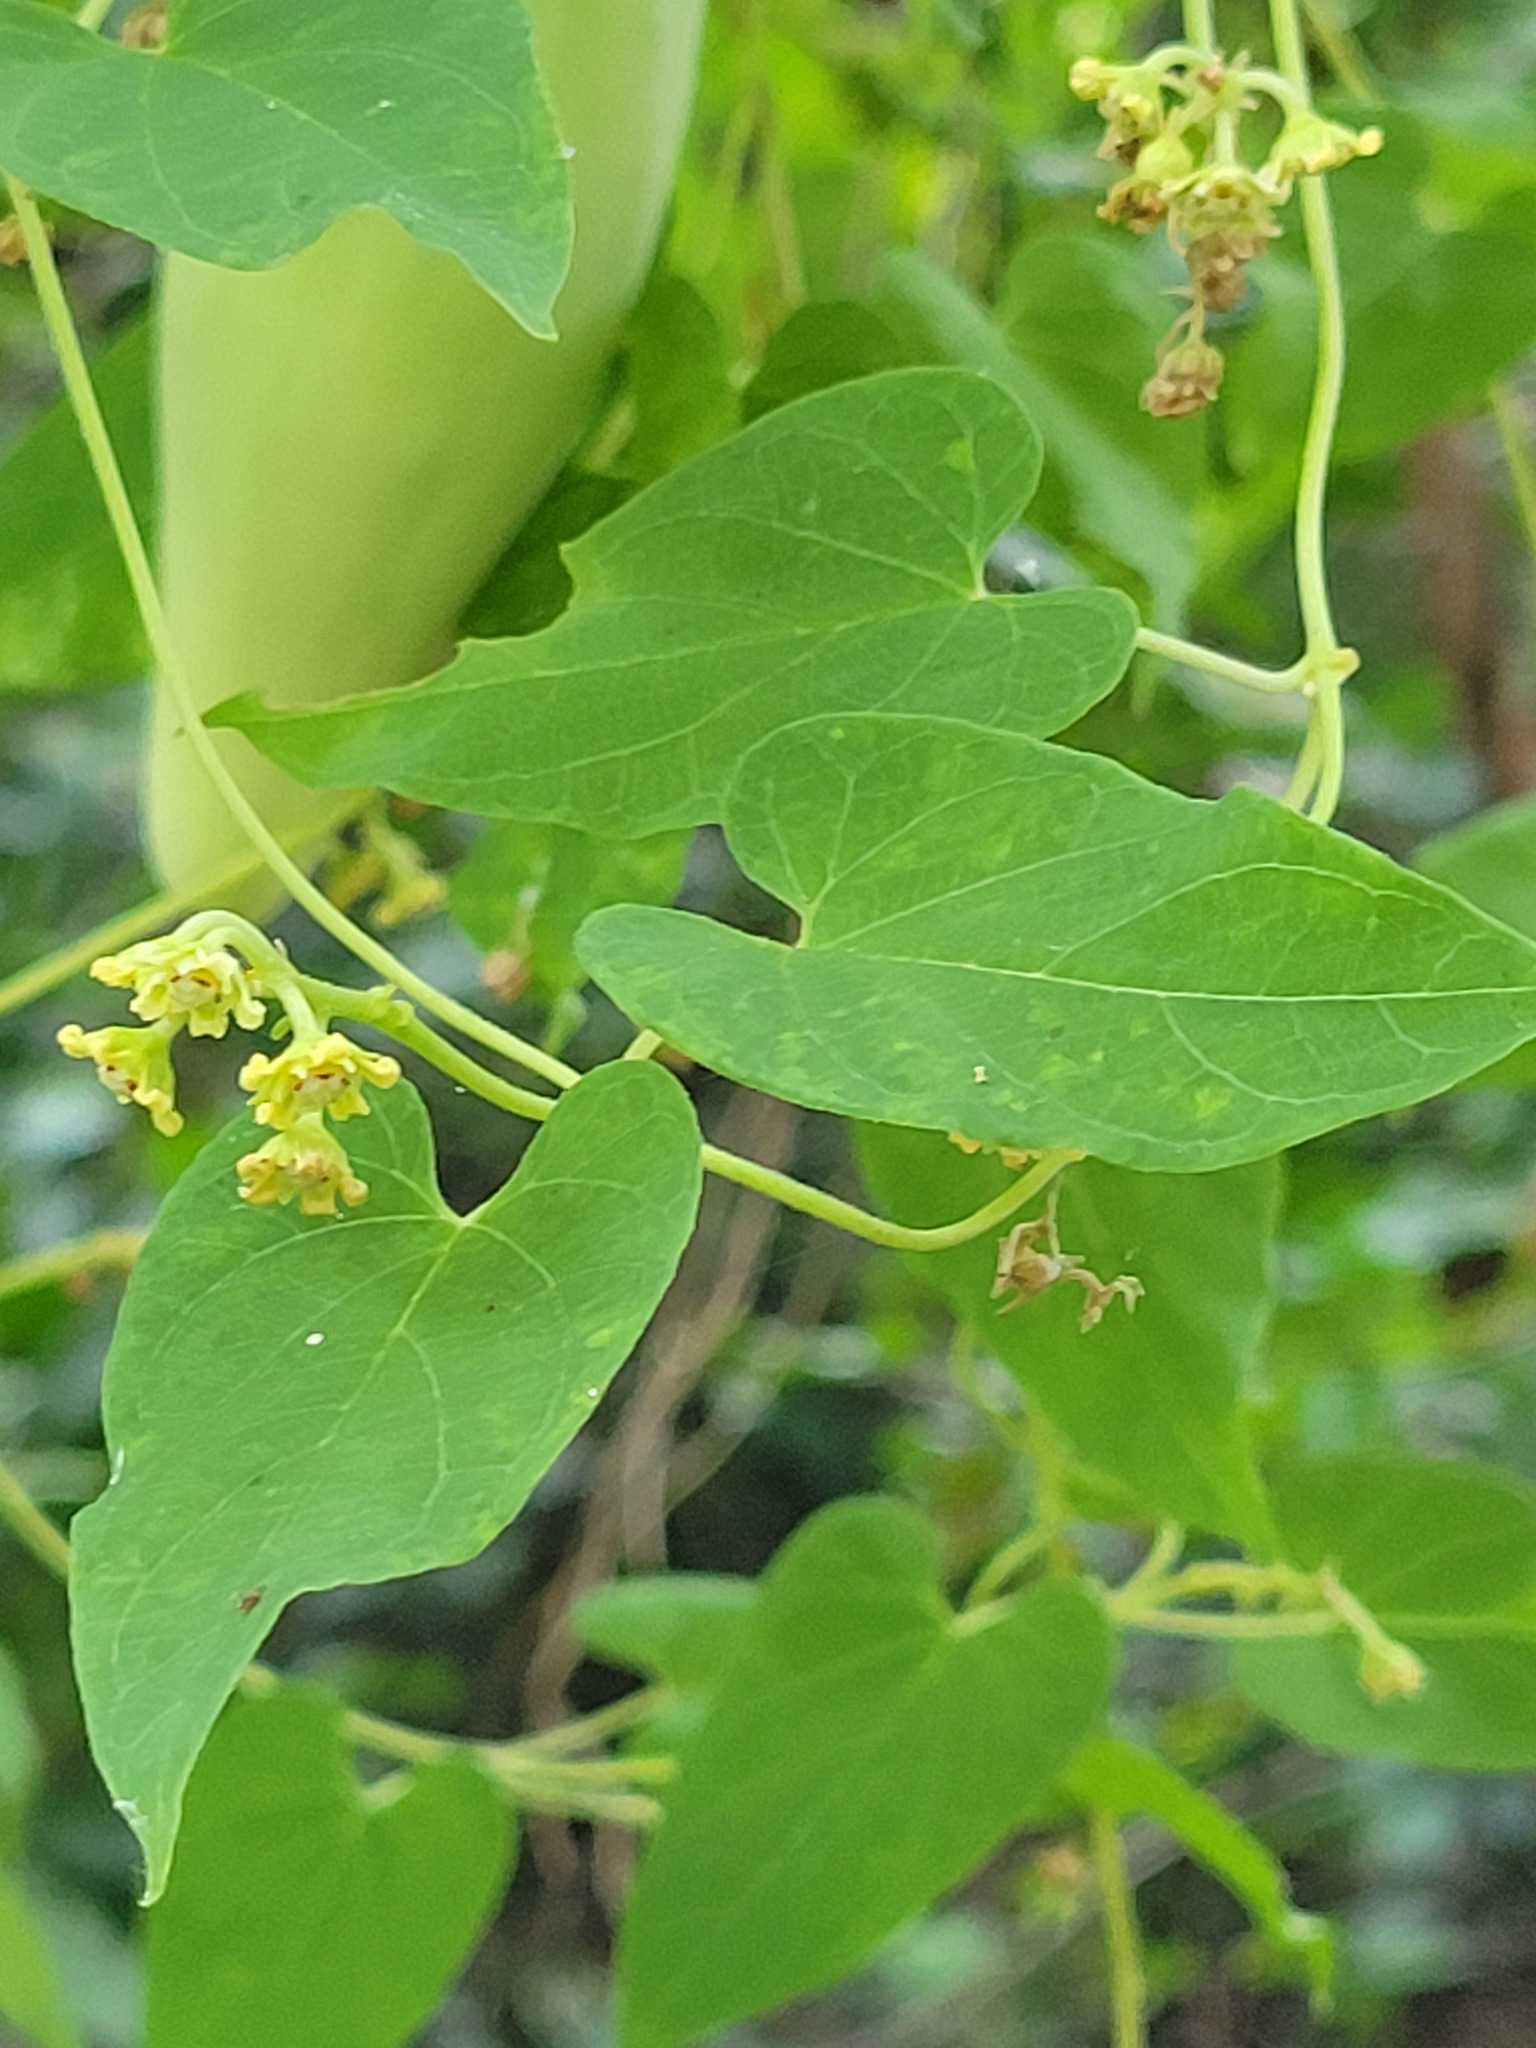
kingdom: Plantae
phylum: Tracheophyta
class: Magnoliopsida
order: Gentianales
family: Apocynaceae
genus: Cynanchum
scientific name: Cynanchum racemosum
